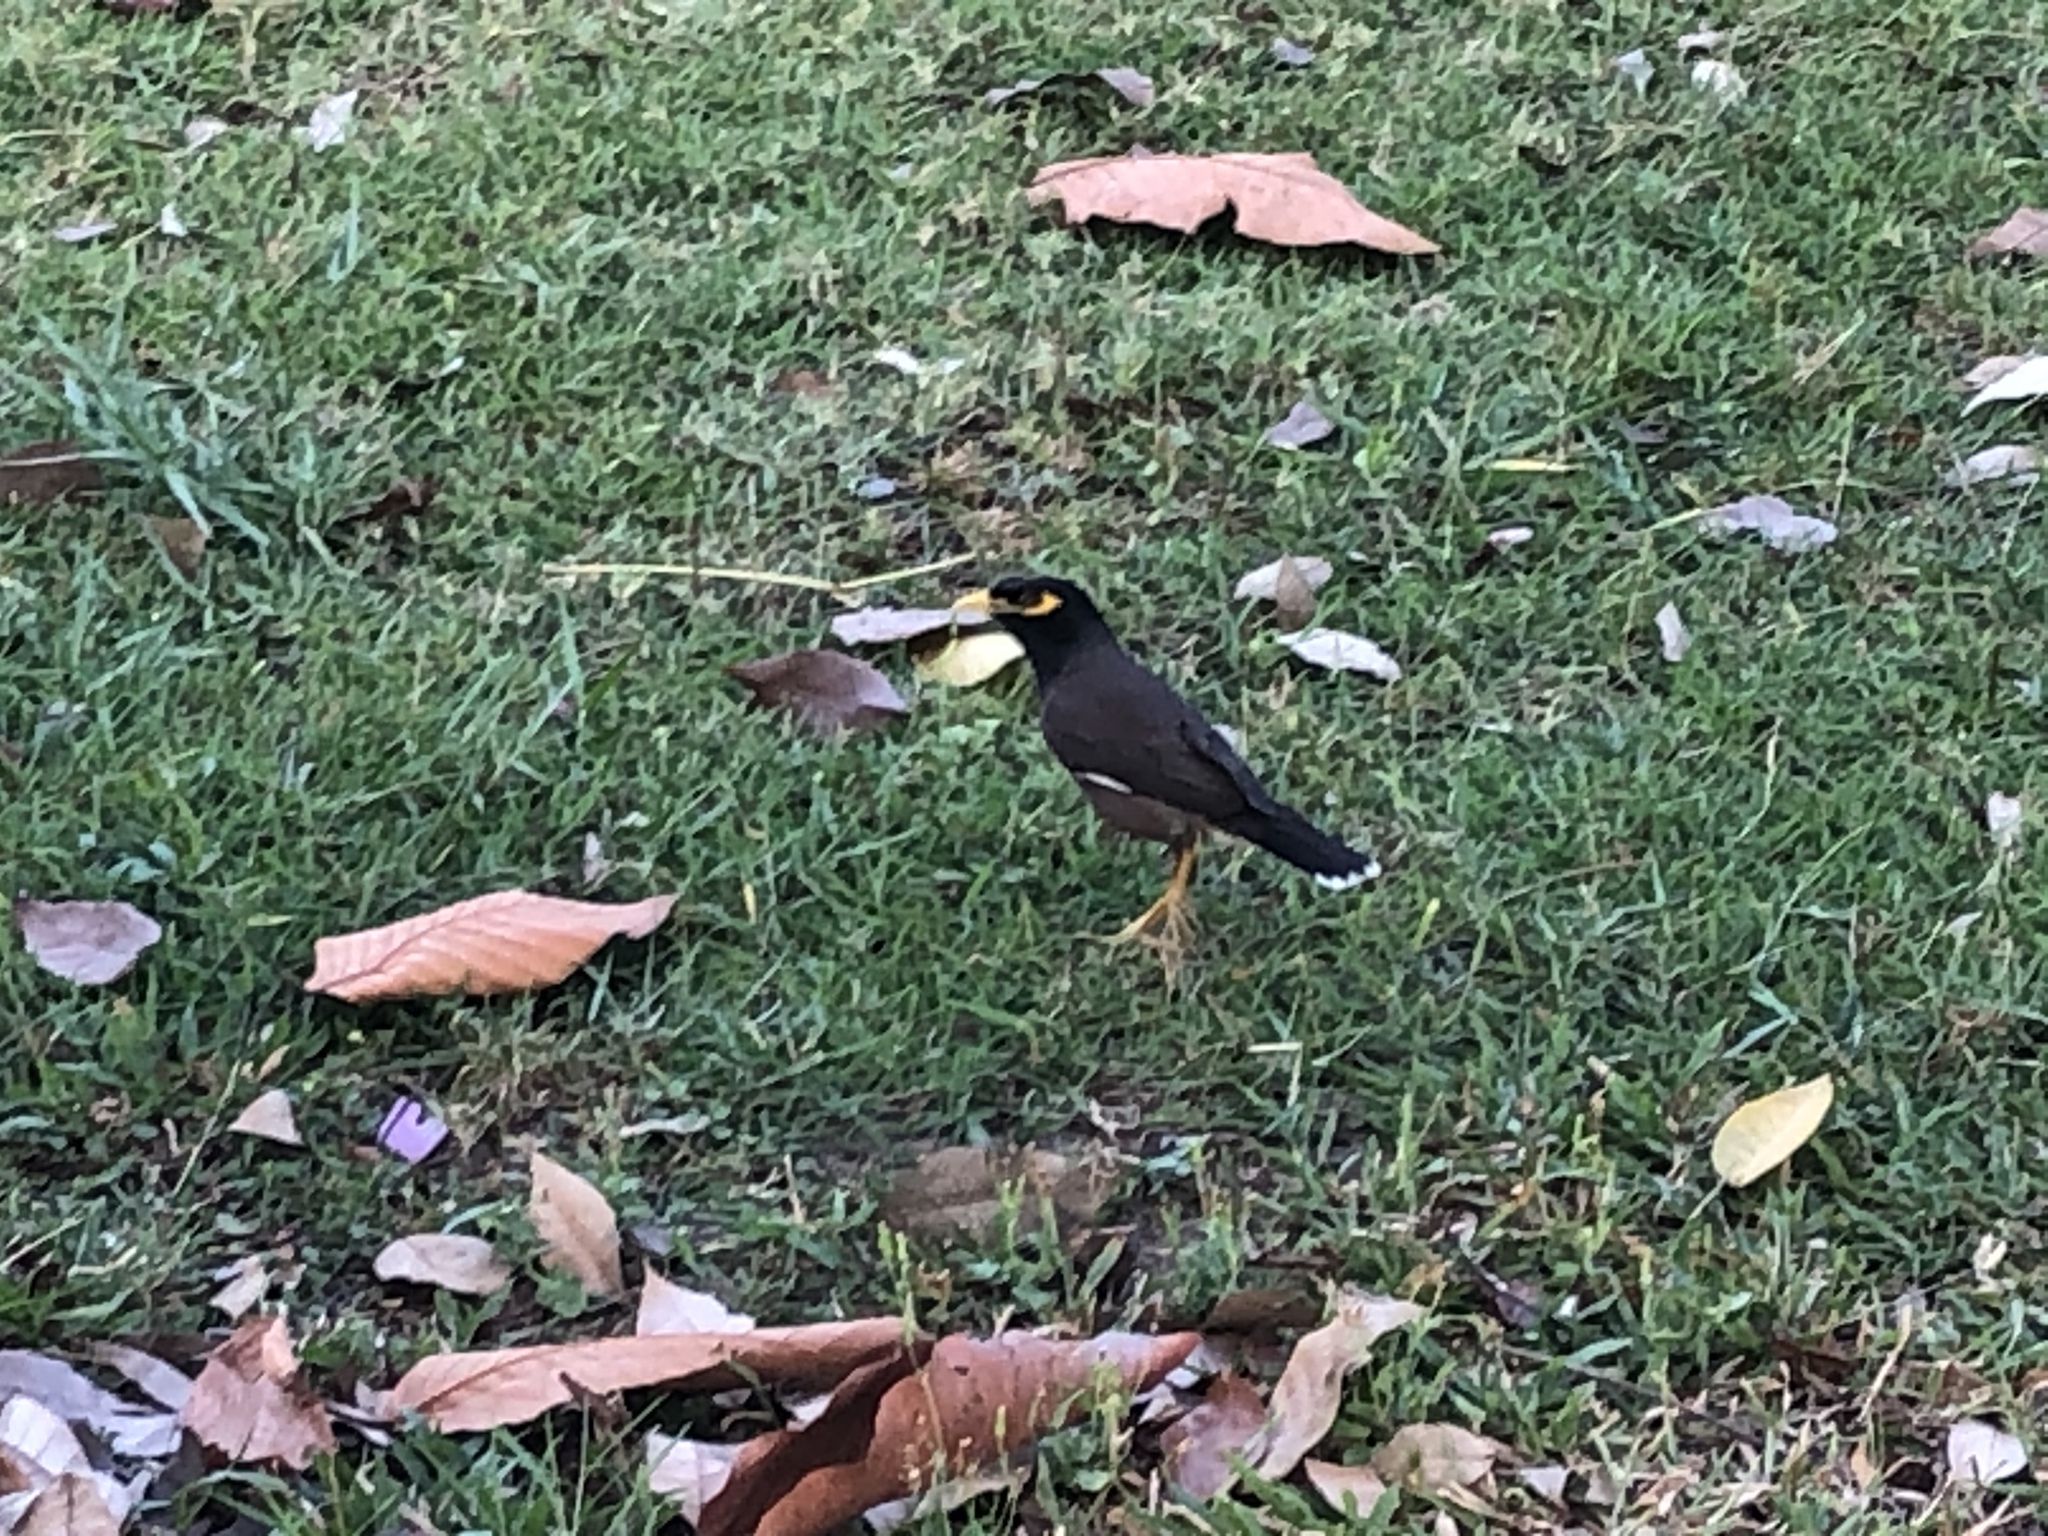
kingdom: Animalia
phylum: Chordata
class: Aves
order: Passeriformes
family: Sturnidae
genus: Acridotheres
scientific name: Acridotheres tristis
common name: Common myna
